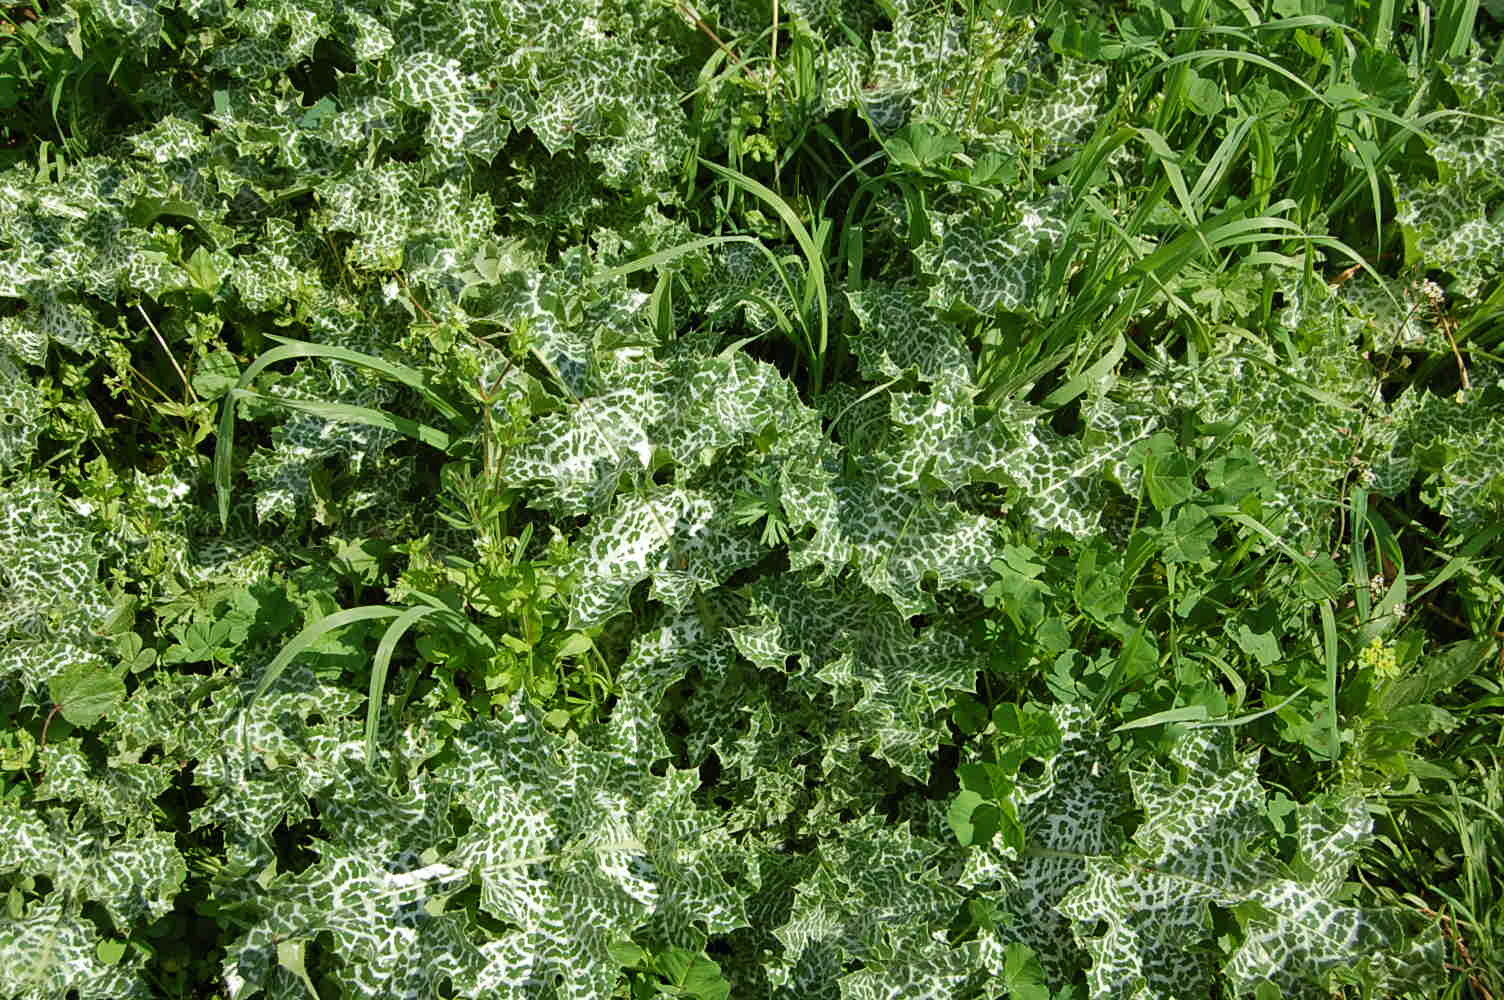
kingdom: Plantae
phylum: Tracheophyta
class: Magnoliopsida
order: Asterales
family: Asteraceae
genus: Silybum
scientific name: Silybum marianum
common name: Milk thistle
